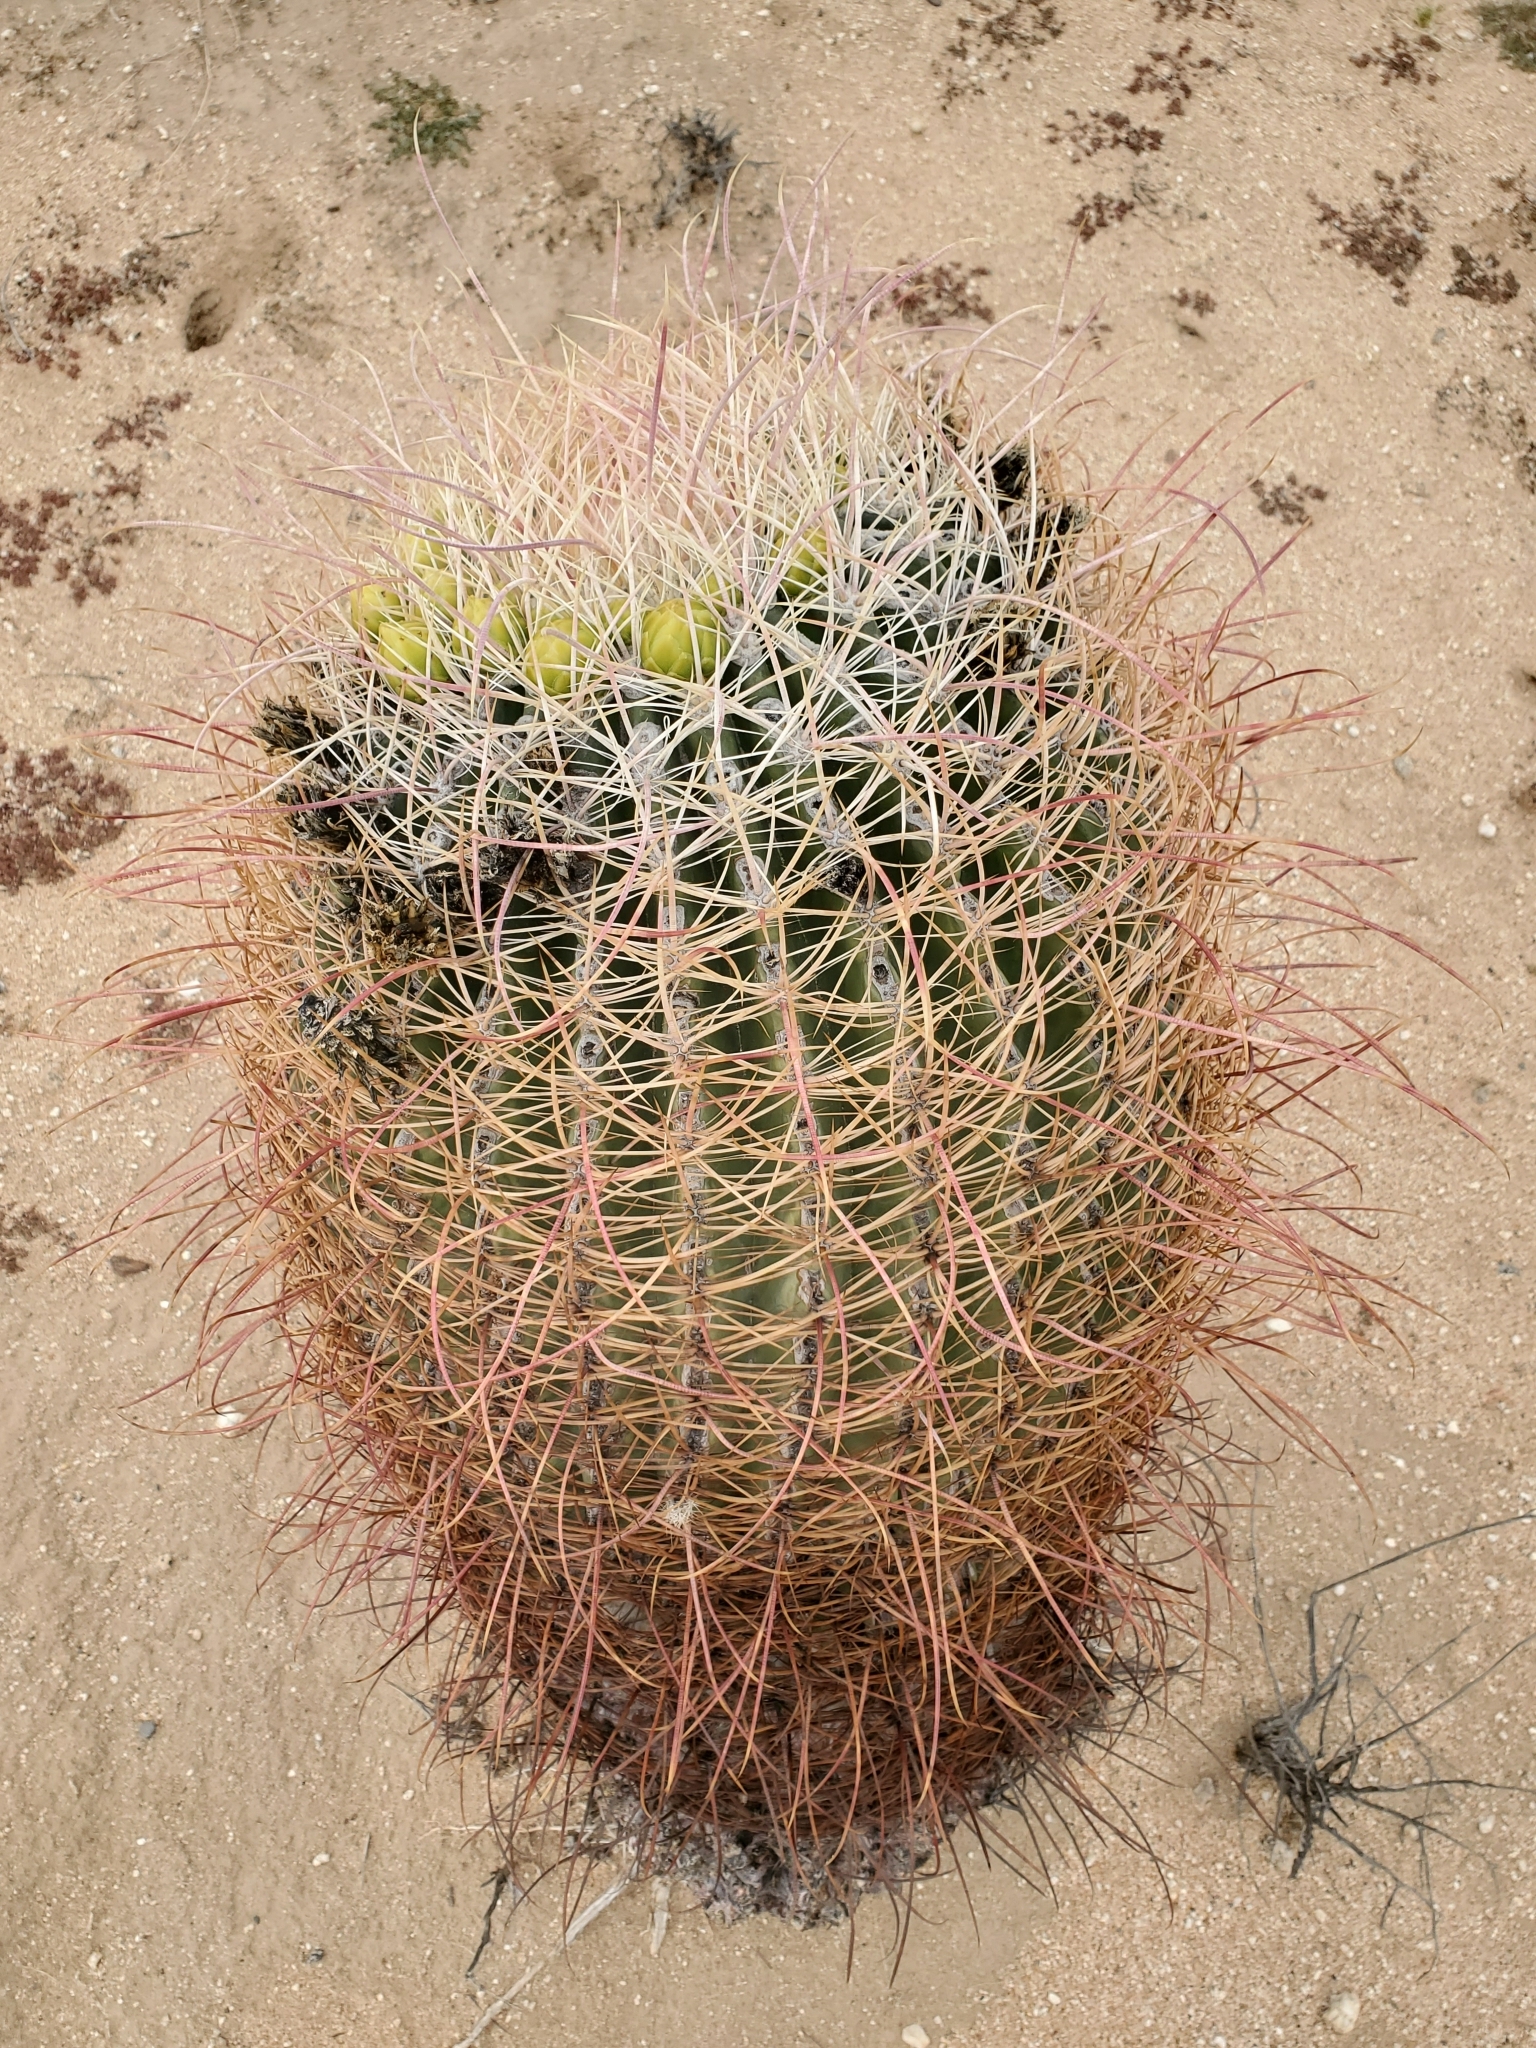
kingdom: Plantae
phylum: Tracheophyta
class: Magnoliopsida
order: Caryophyllales
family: Cactaceae
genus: Ferocactus
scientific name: Ferocactus cylindraceus
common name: California barrel cactus
